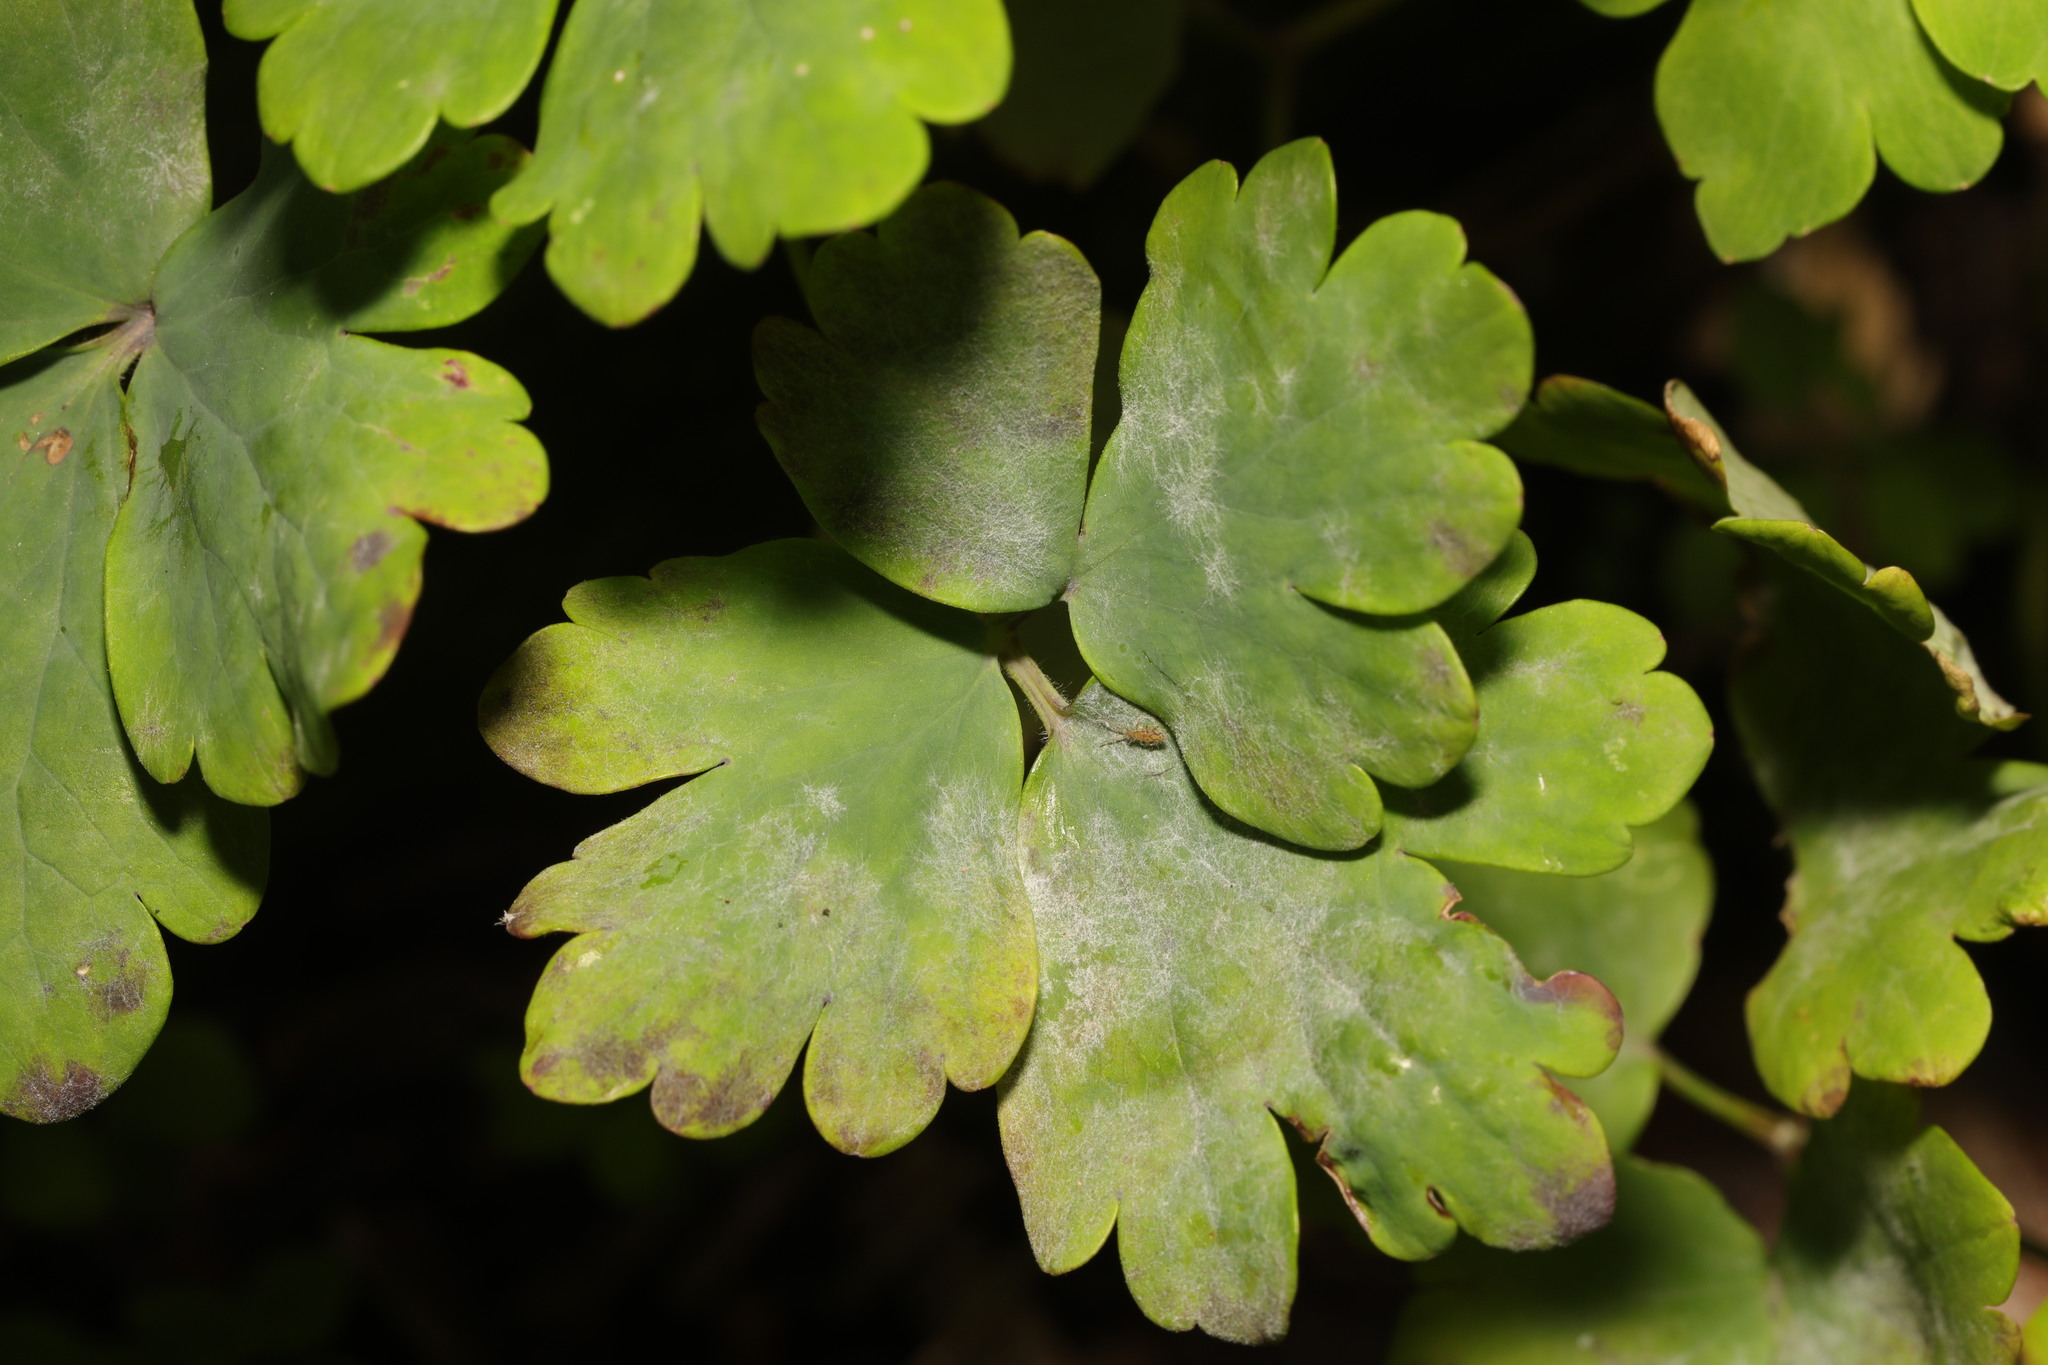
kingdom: Fungi
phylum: Ascomycota
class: Leotiomycetes
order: Helotiales
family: Erysiphaceae
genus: Erysiphe
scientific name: Erysiphe aquilegiae
